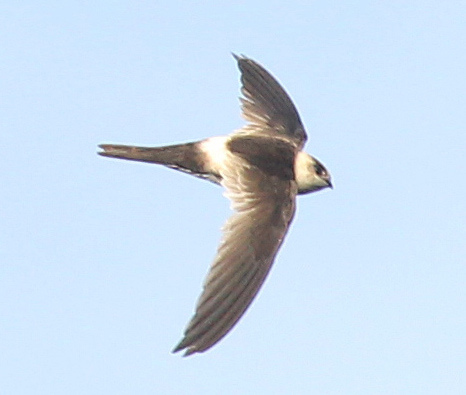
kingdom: Animalia
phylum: Chordata
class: Aves
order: Apodiformes
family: Apodidae
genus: Aeronautes
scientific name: Aeronautes andecolus
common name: Andean swift
